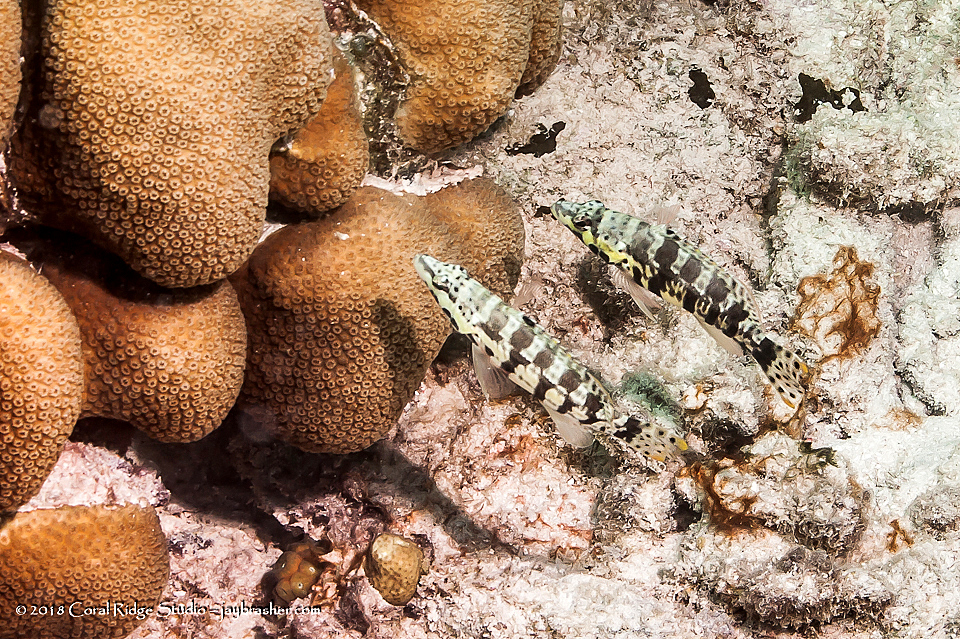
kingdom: Animalia
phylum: Chordata
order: Perciformes
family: Serranidae
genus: Serranus
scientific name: Serranus tigrinus
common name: Harlequin bass
